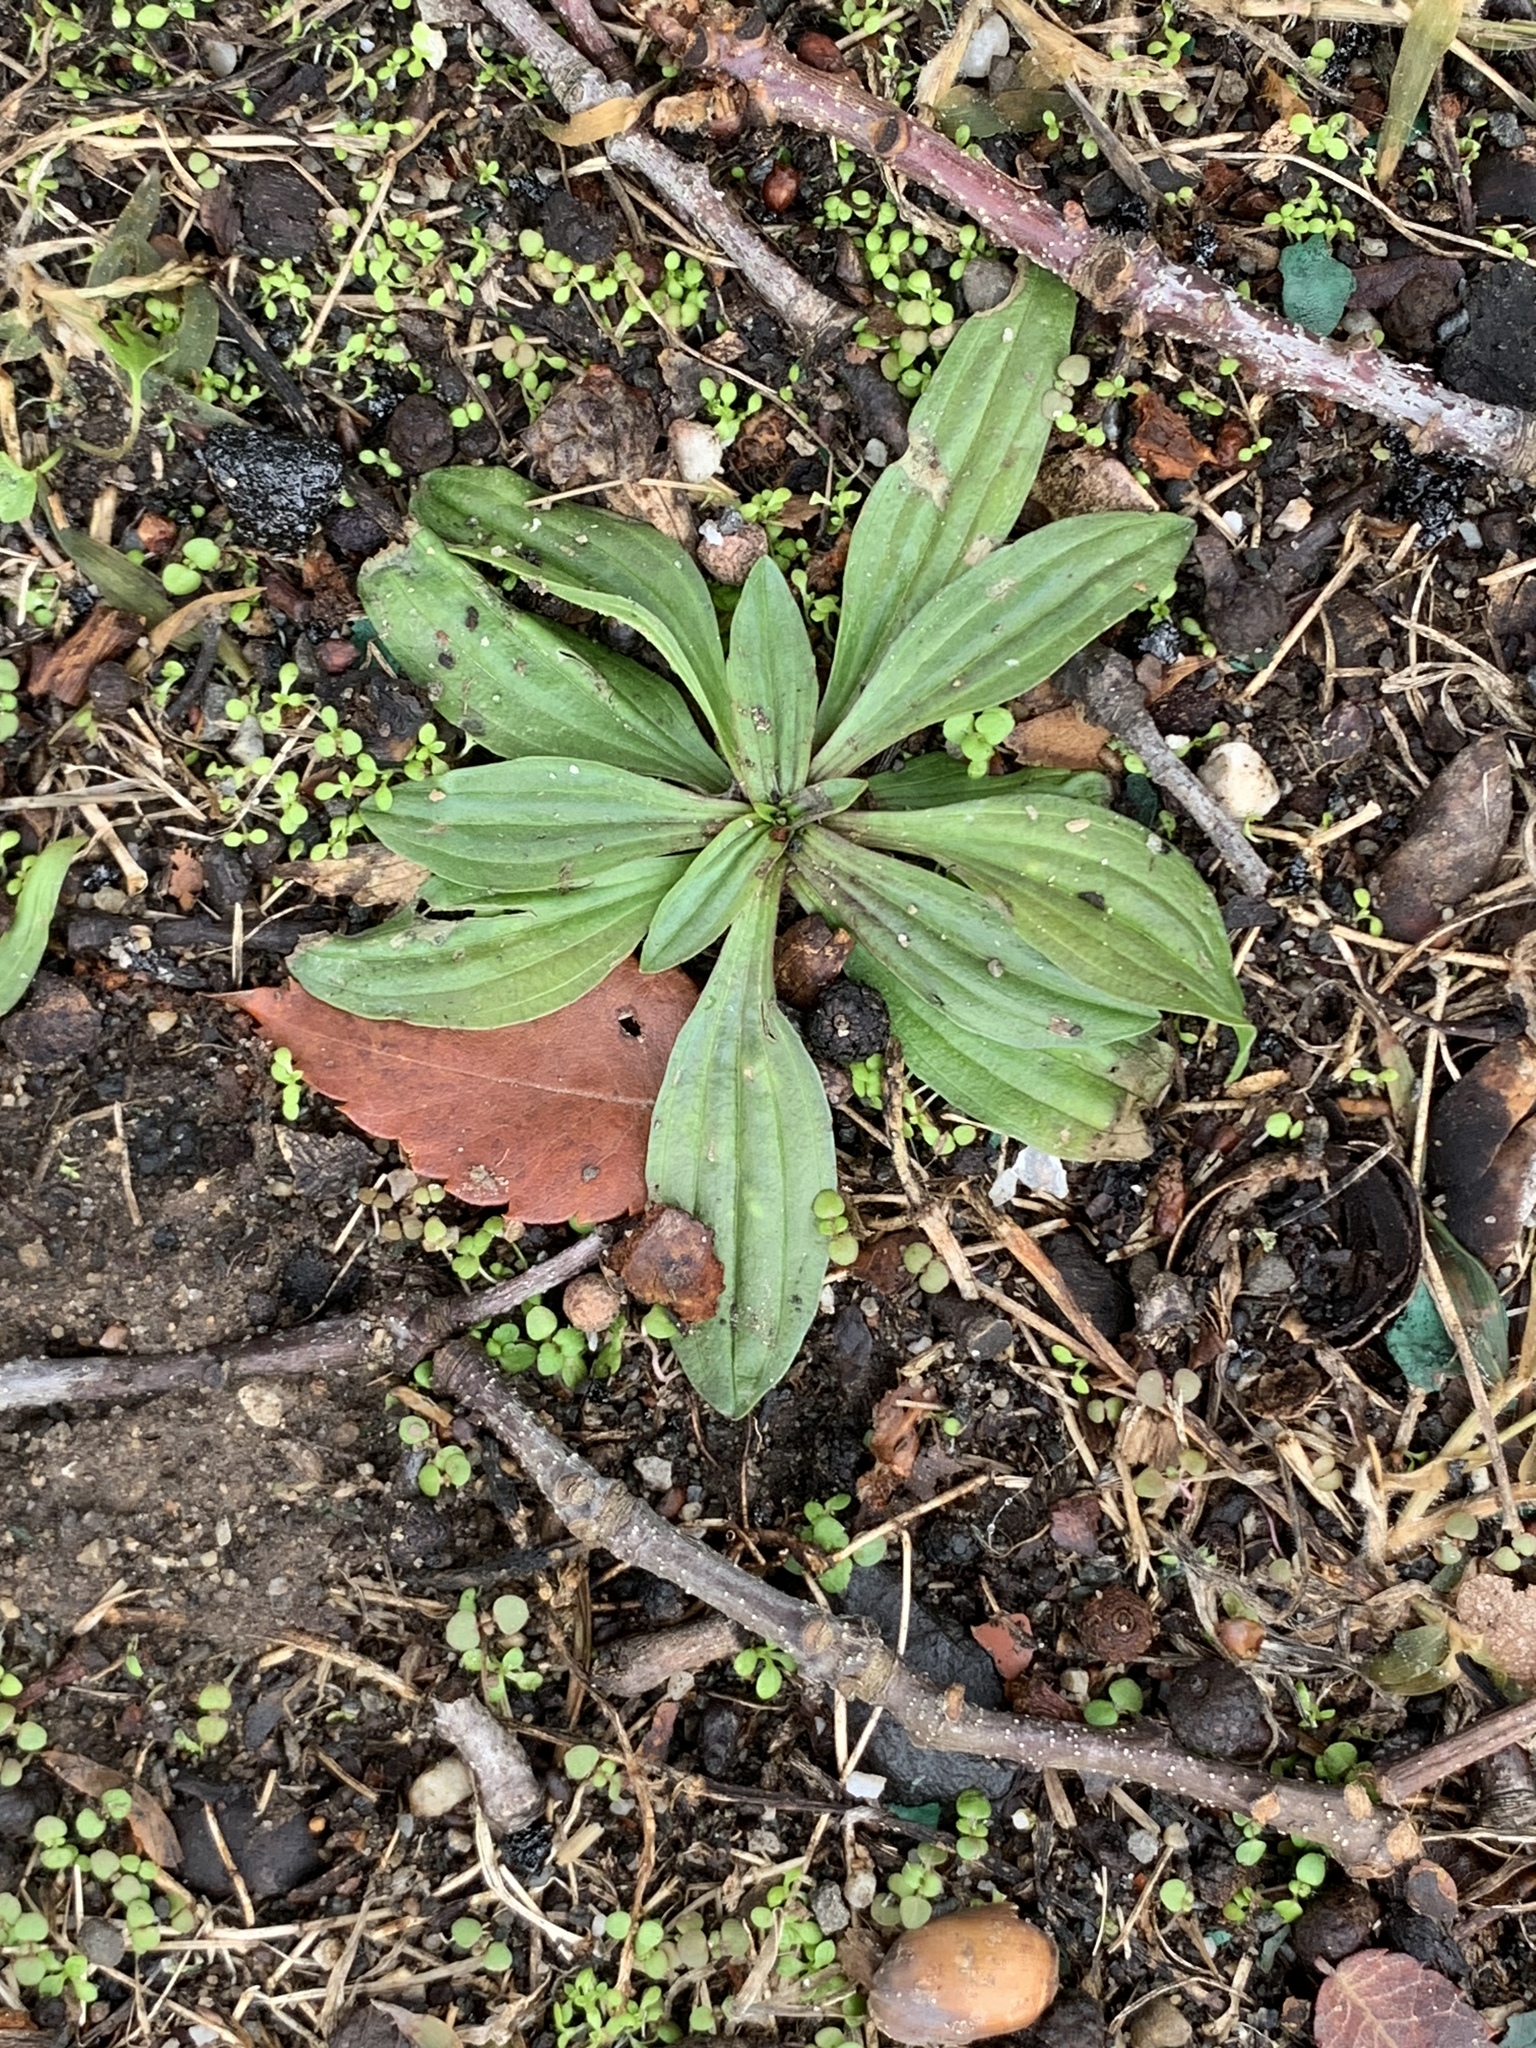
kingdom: Plantae
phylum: Tracheophyta
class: Magnoliopsida
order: Lamiales
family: Plantaginaceae
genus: Plantago
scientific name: Plantago lanceolata
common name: Ribwort plantain
